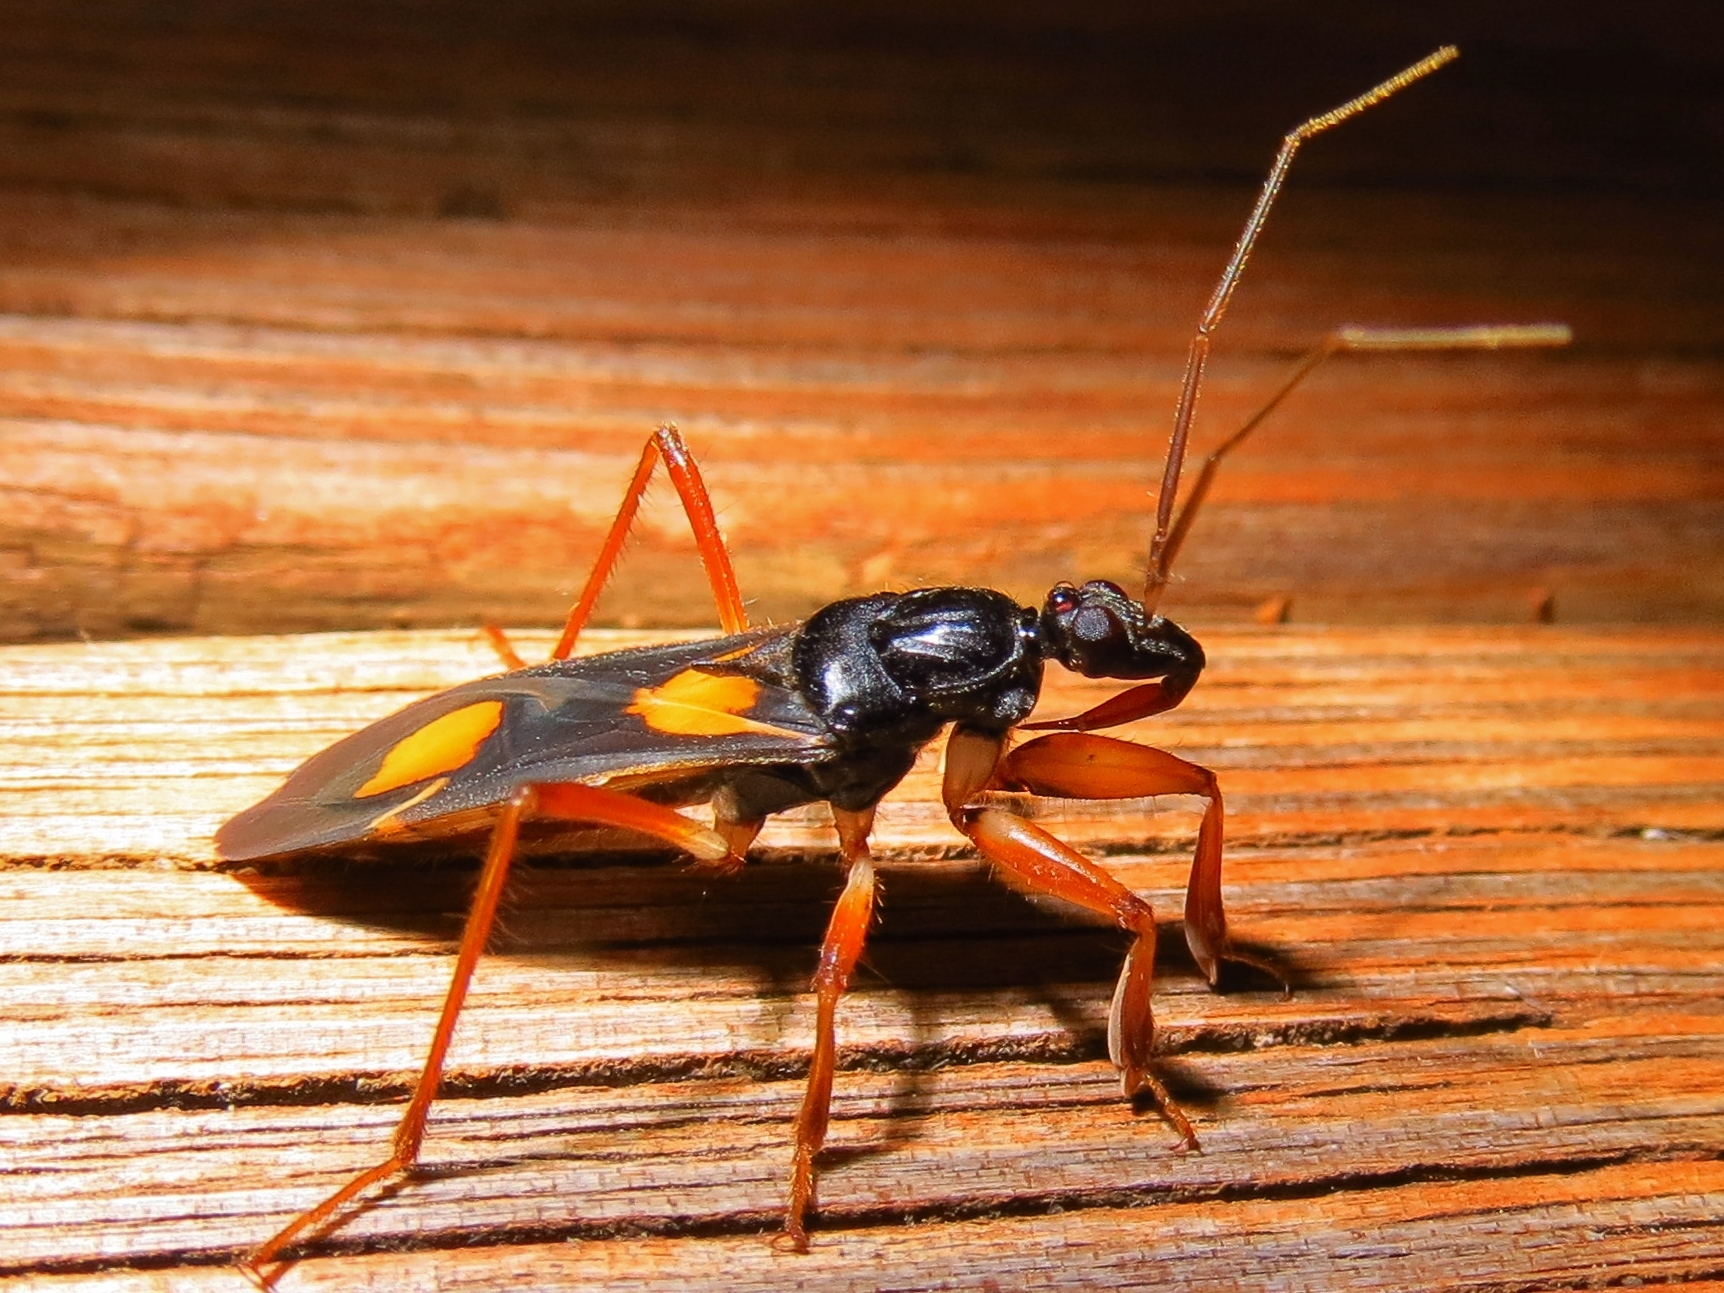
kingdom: Animalia
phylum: Arthropoda
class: Insecta
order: Hemiptera
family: Reduviidae
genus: Rasahus
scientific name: Rasahus hamatus
